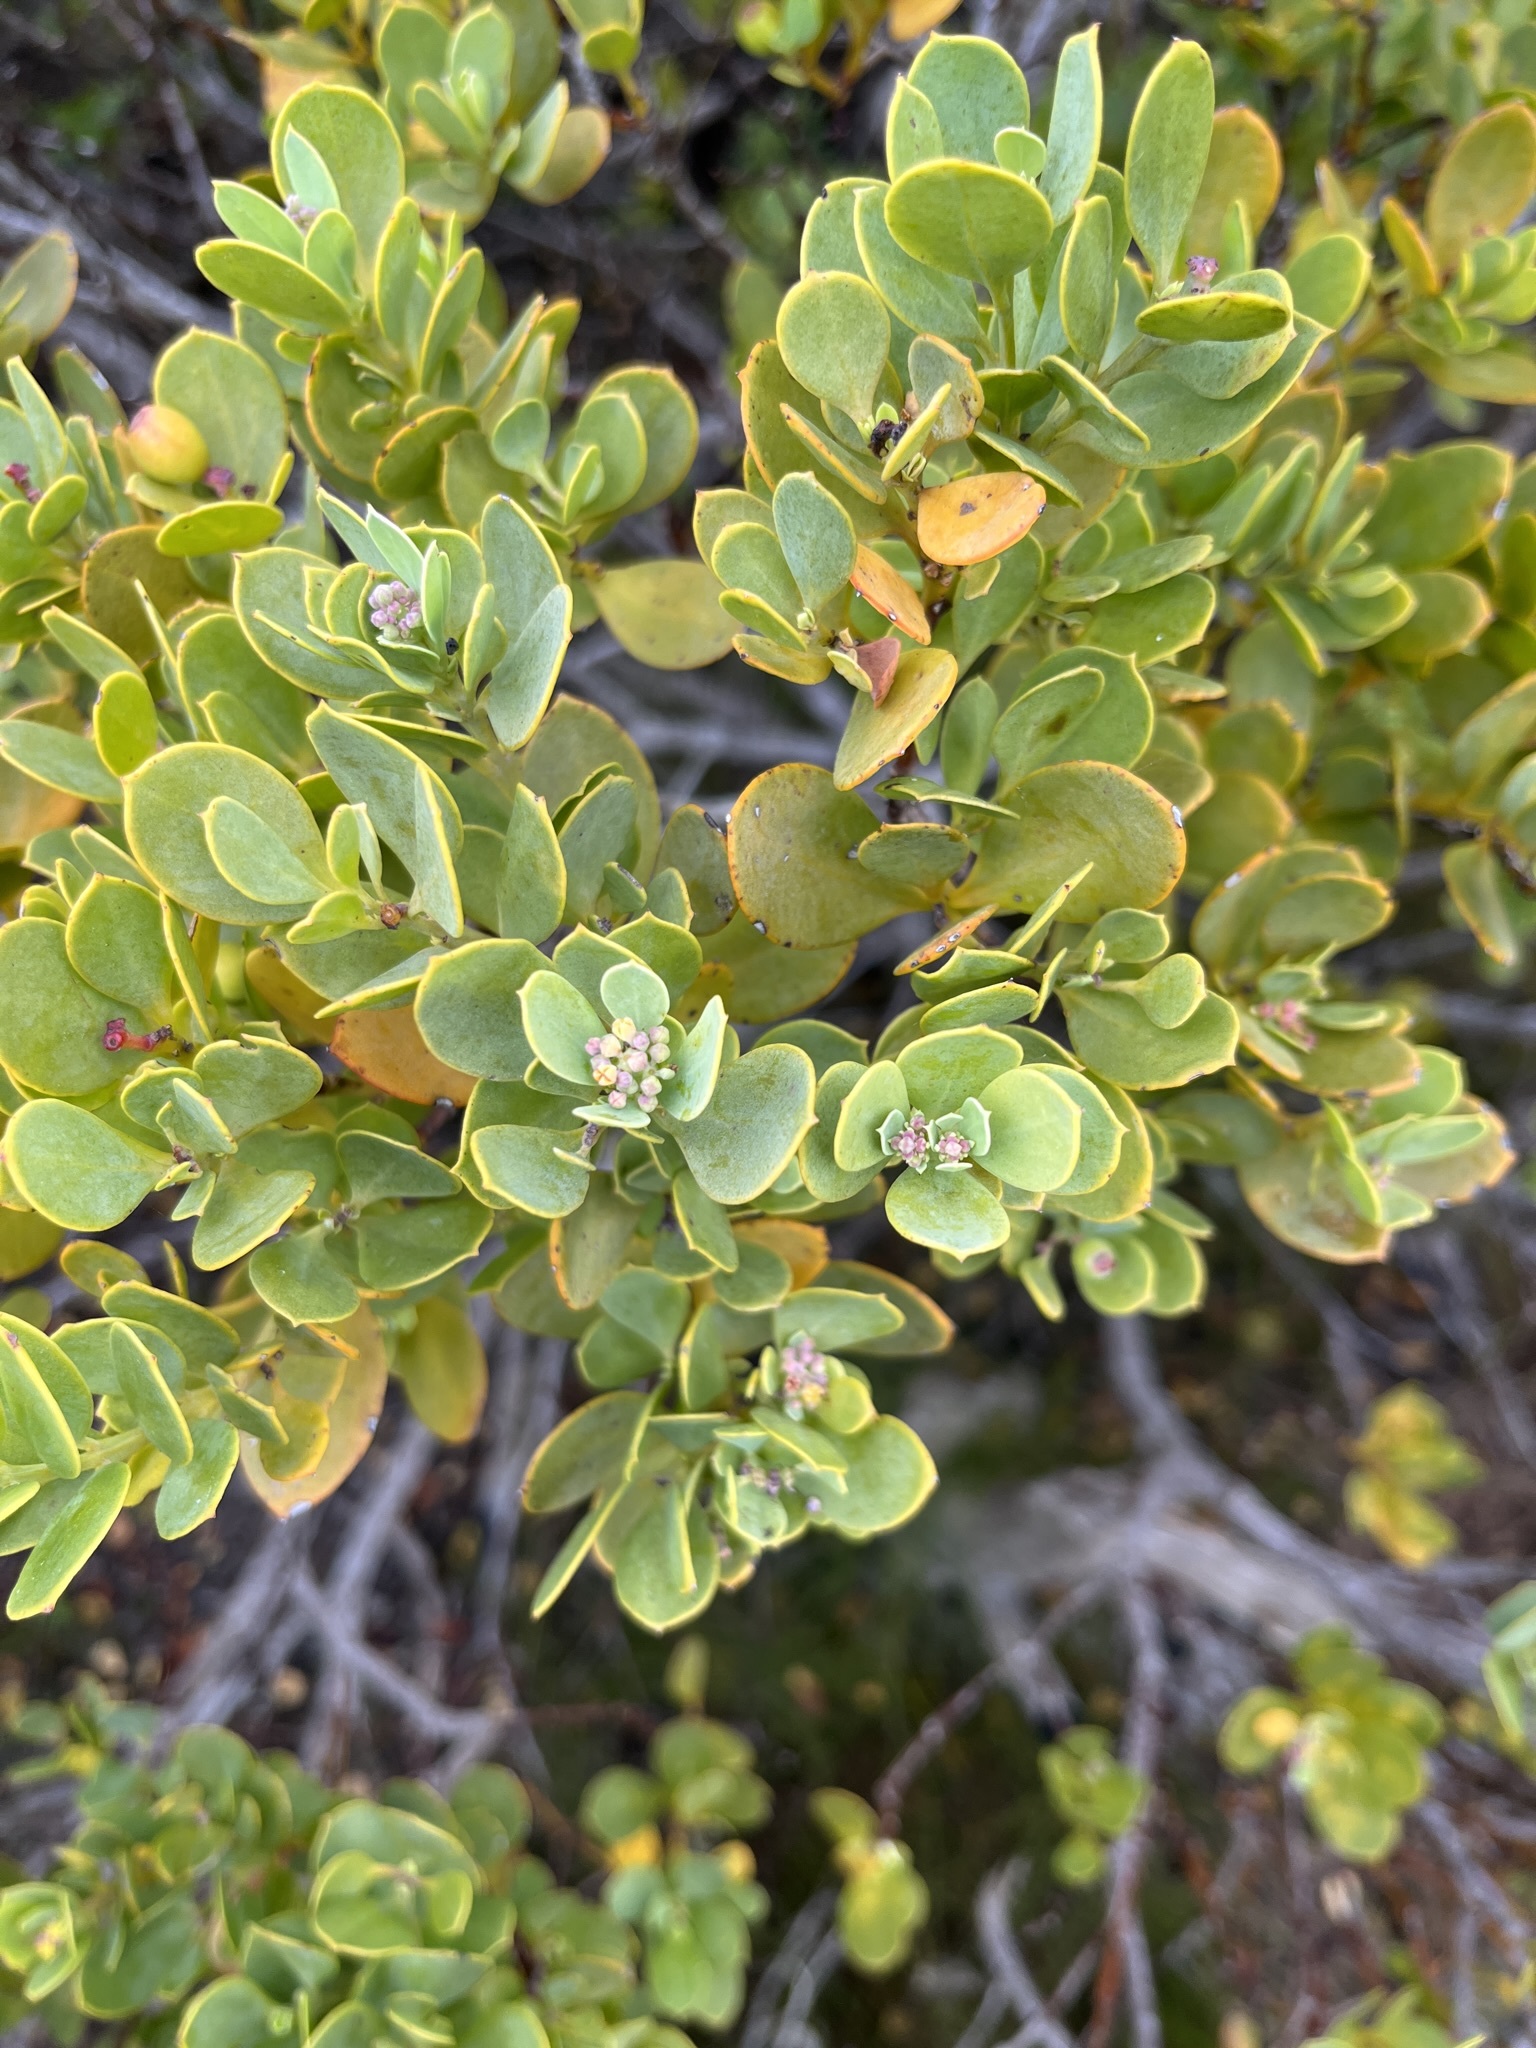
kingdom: Plantae
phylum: Tracheophyta
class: Magnoliopsida
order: Santalales
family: Santalaceae
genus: Osyris
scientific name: Osyris compressa
